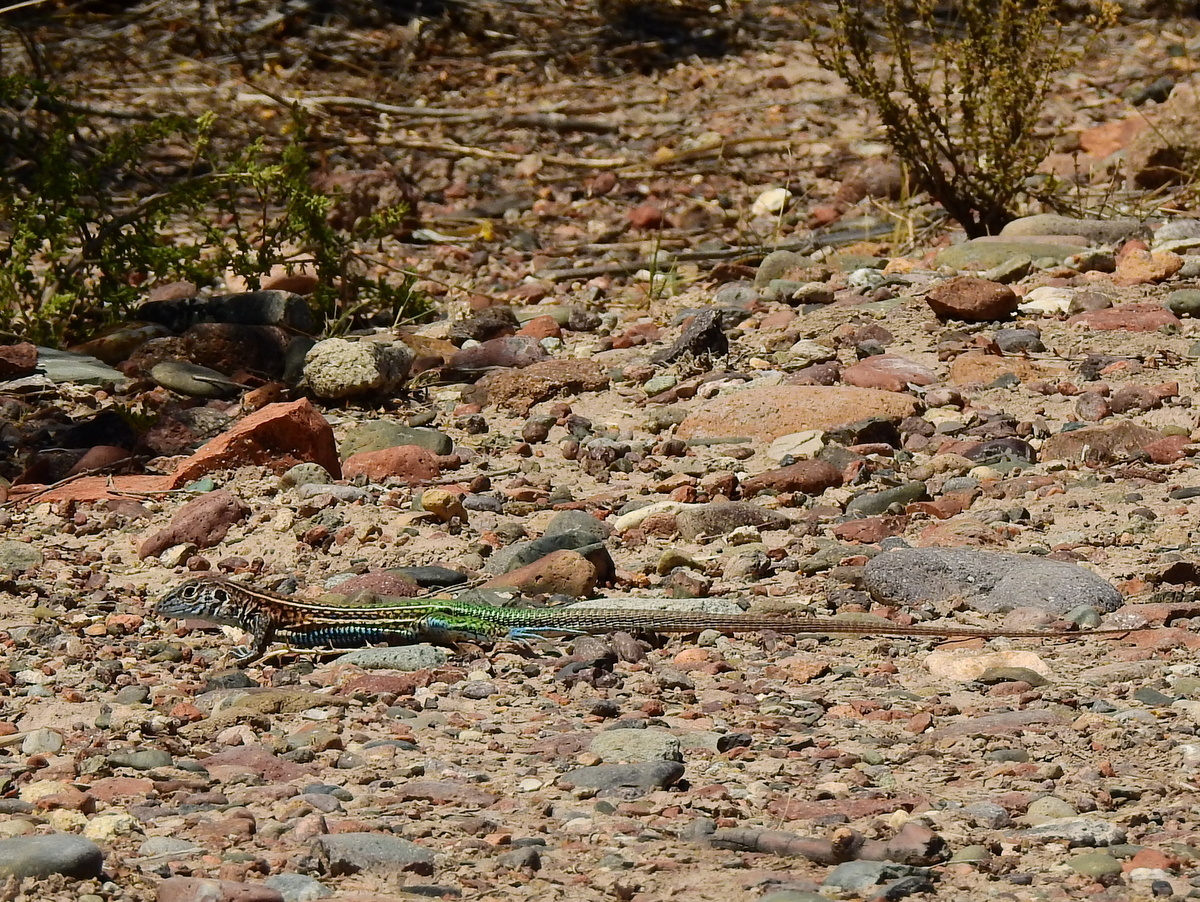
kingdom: Animalia
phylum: Chordata
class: Squamata
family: Teiidae
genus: Teius
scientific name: Teius teyou
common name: Four-toed tegu
